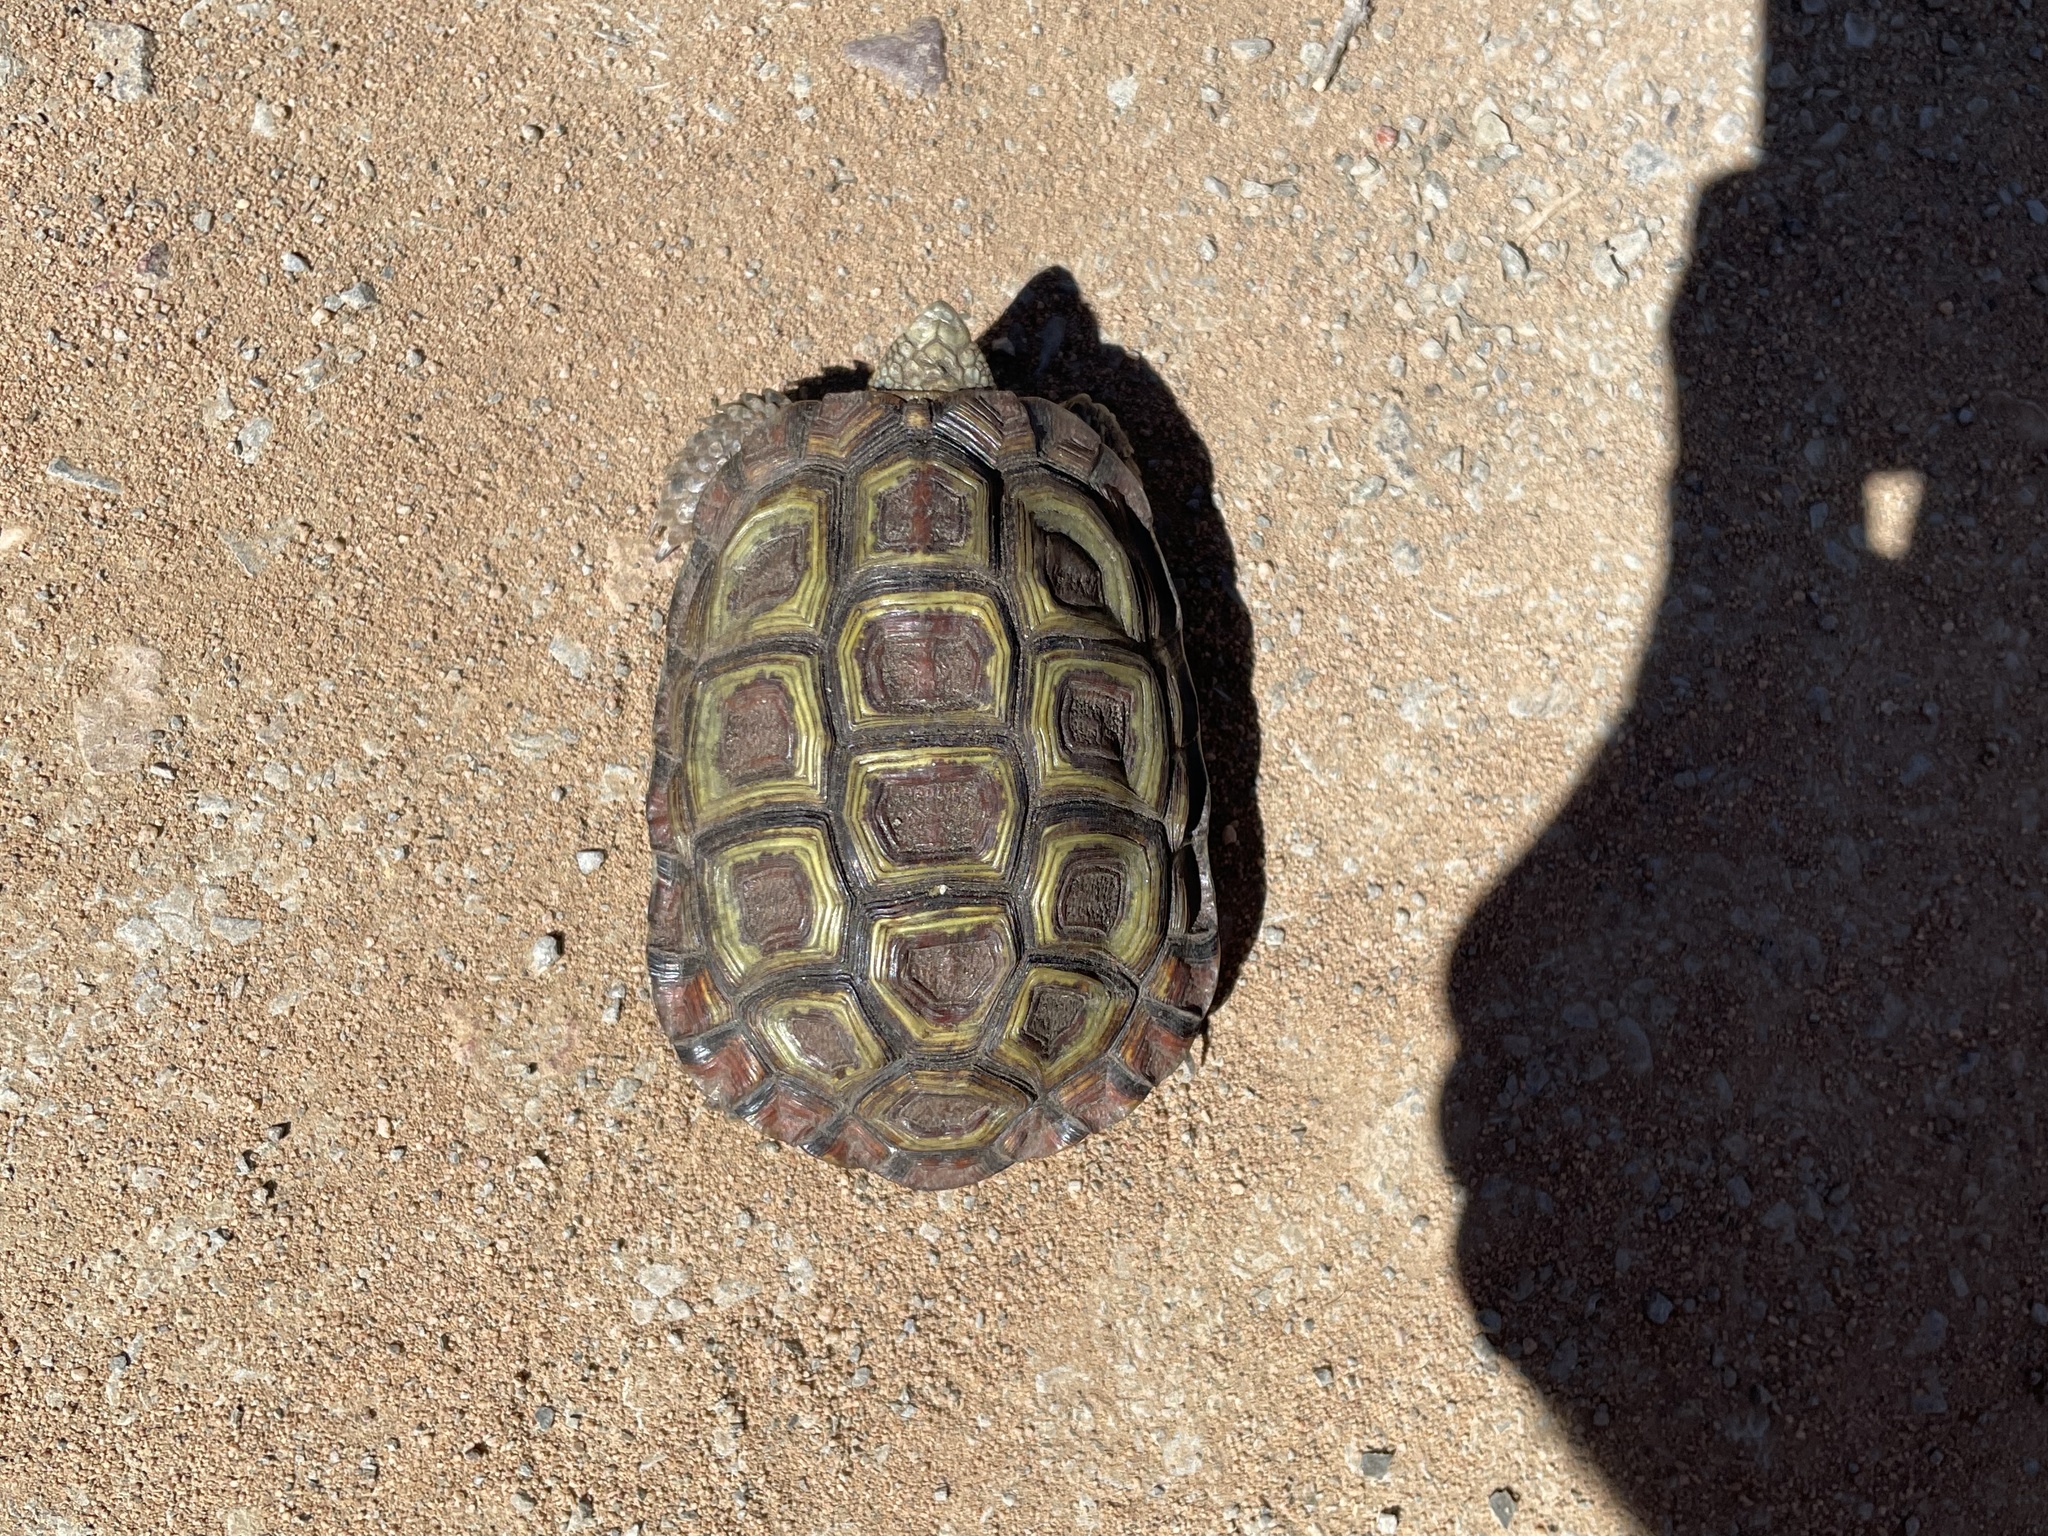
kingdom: Animalia
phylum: Chordata
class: Testudines
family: Testudinidae
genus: Homopus
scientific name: Homopus areolatus
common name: Parrot-beaked tortoise
